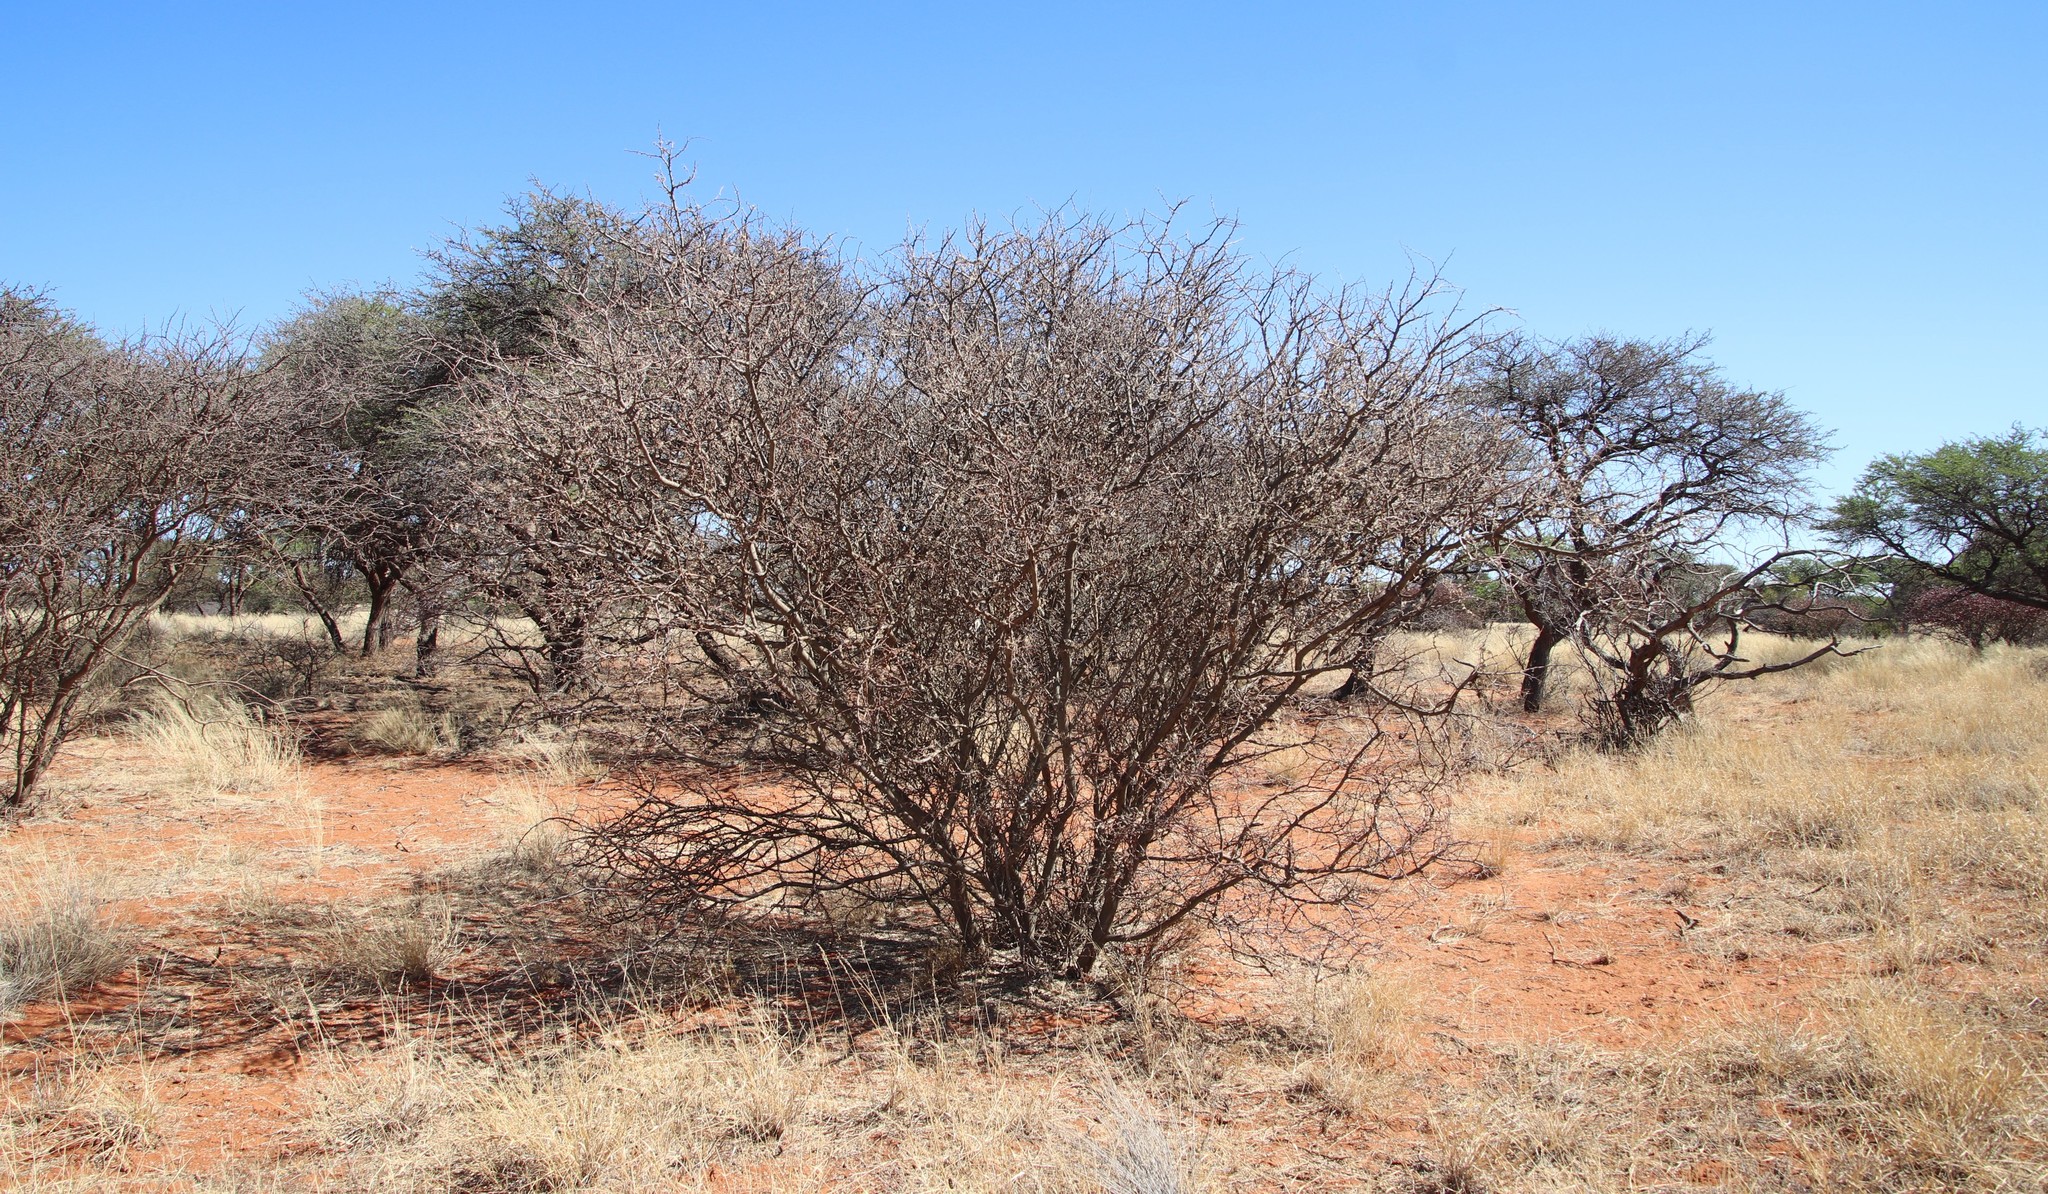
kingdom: Plantae
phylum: Tracheophyta
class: Magnoliopsida
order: Fabales
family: Fabaceae
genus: Senegalia
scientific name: Senegalia mellifera
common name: Hookthorn
